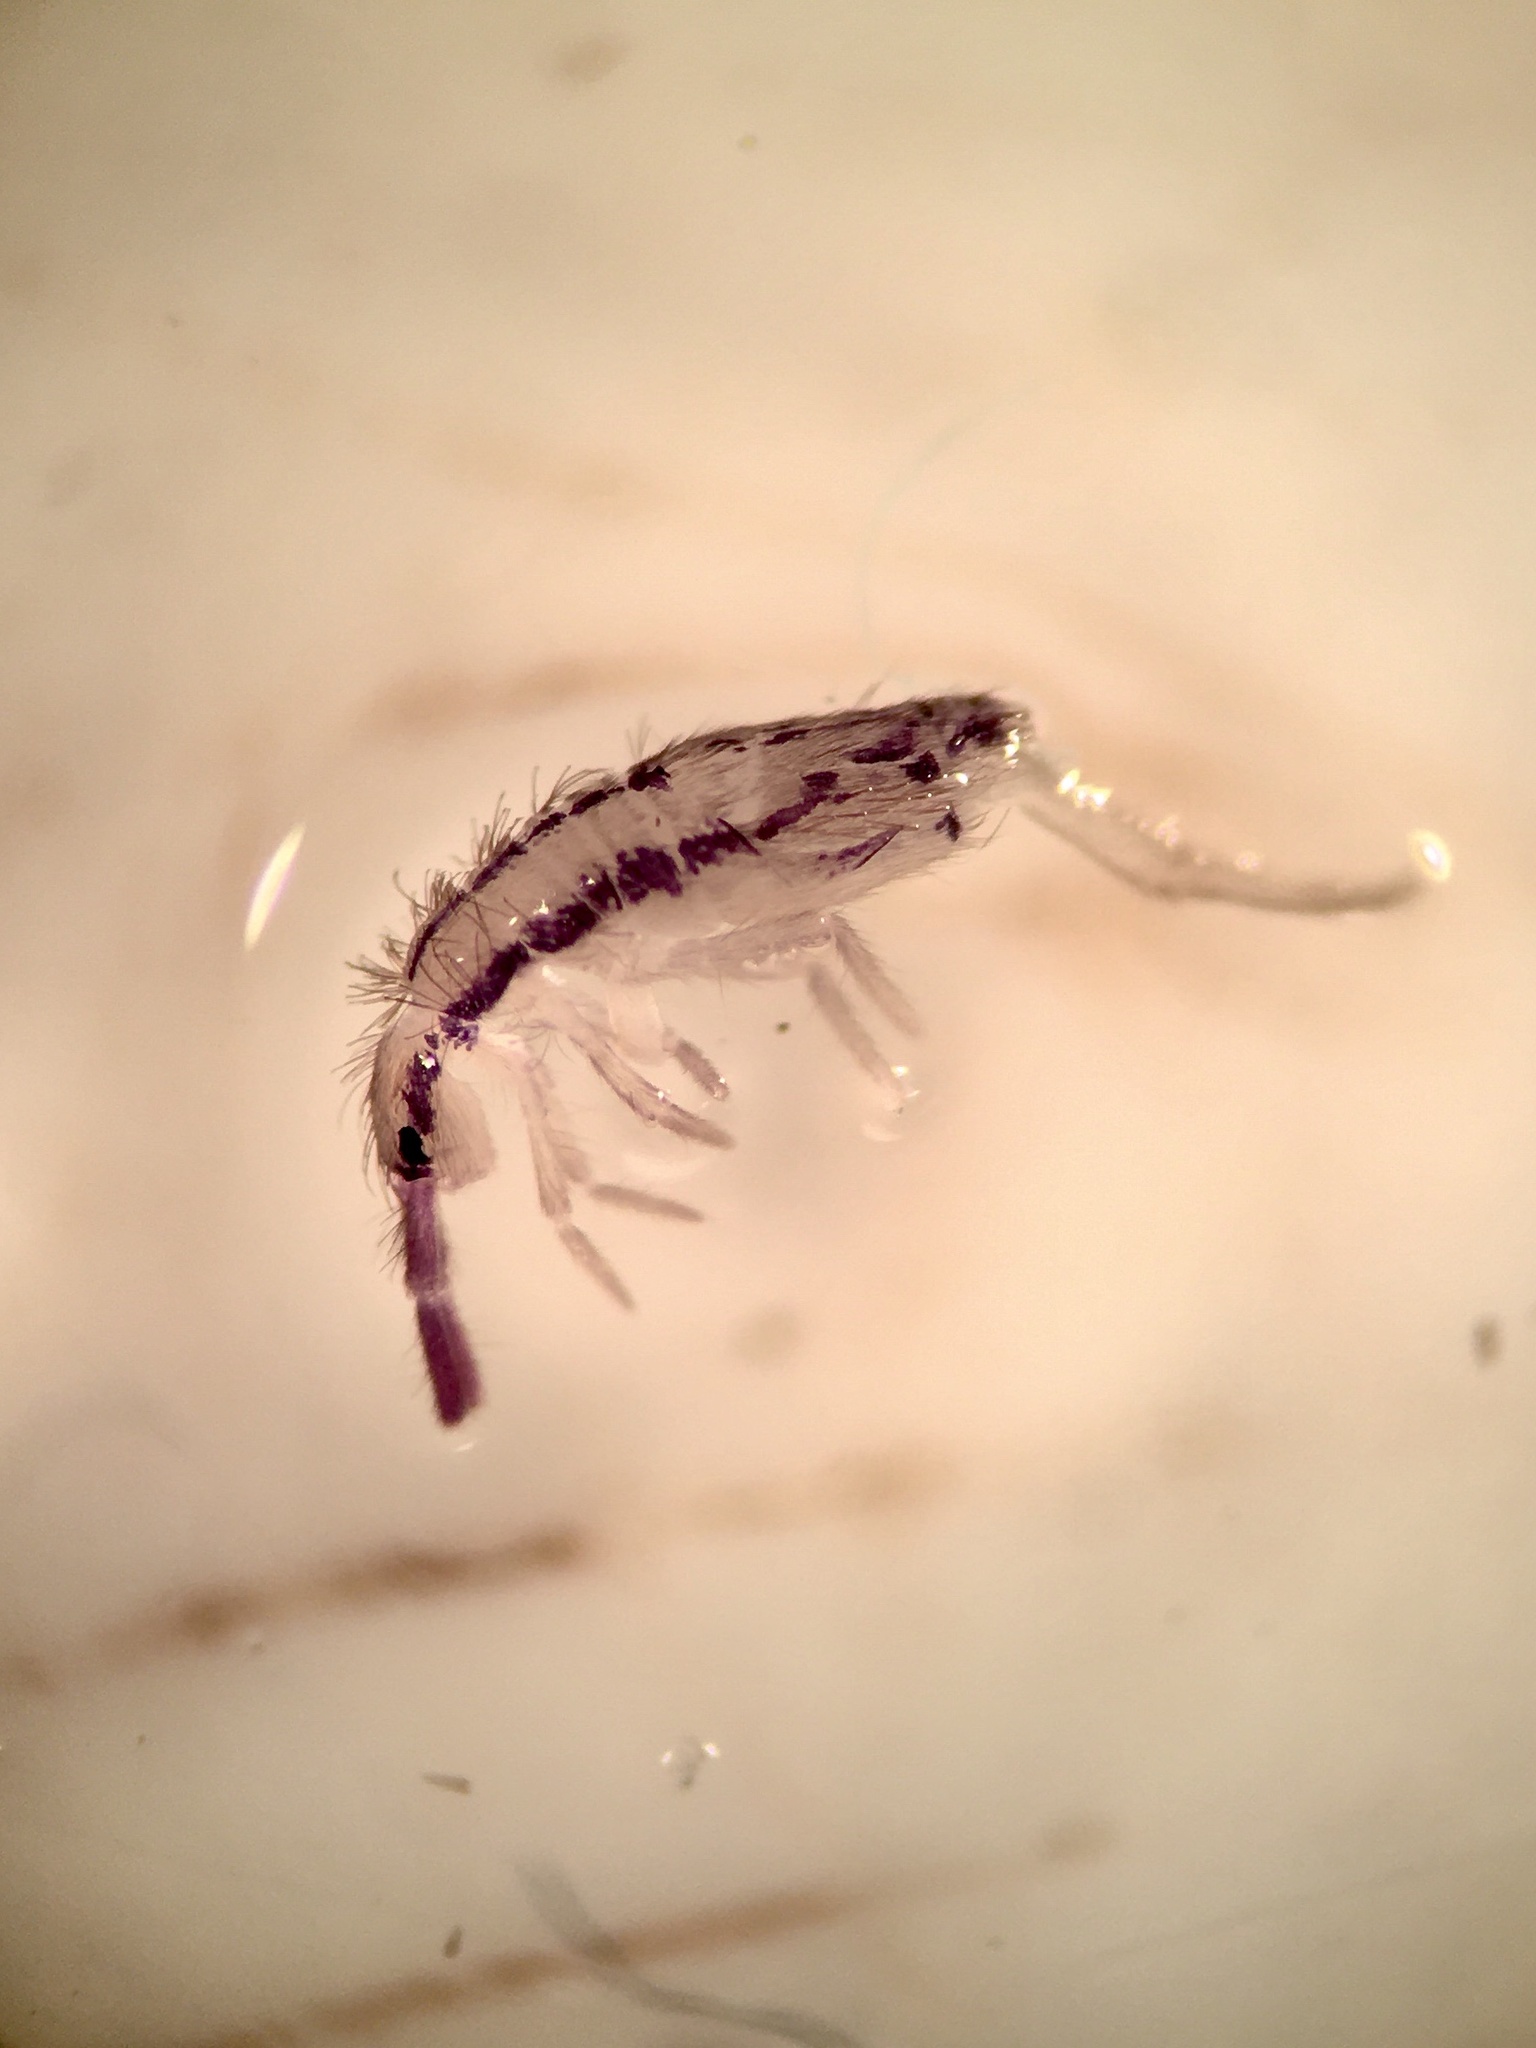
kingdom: Animalia
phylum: Arthropoda
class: Collembola
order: Entomobryomorpha
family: Entomobryidae
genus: Homidia
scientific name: Homidia socia
